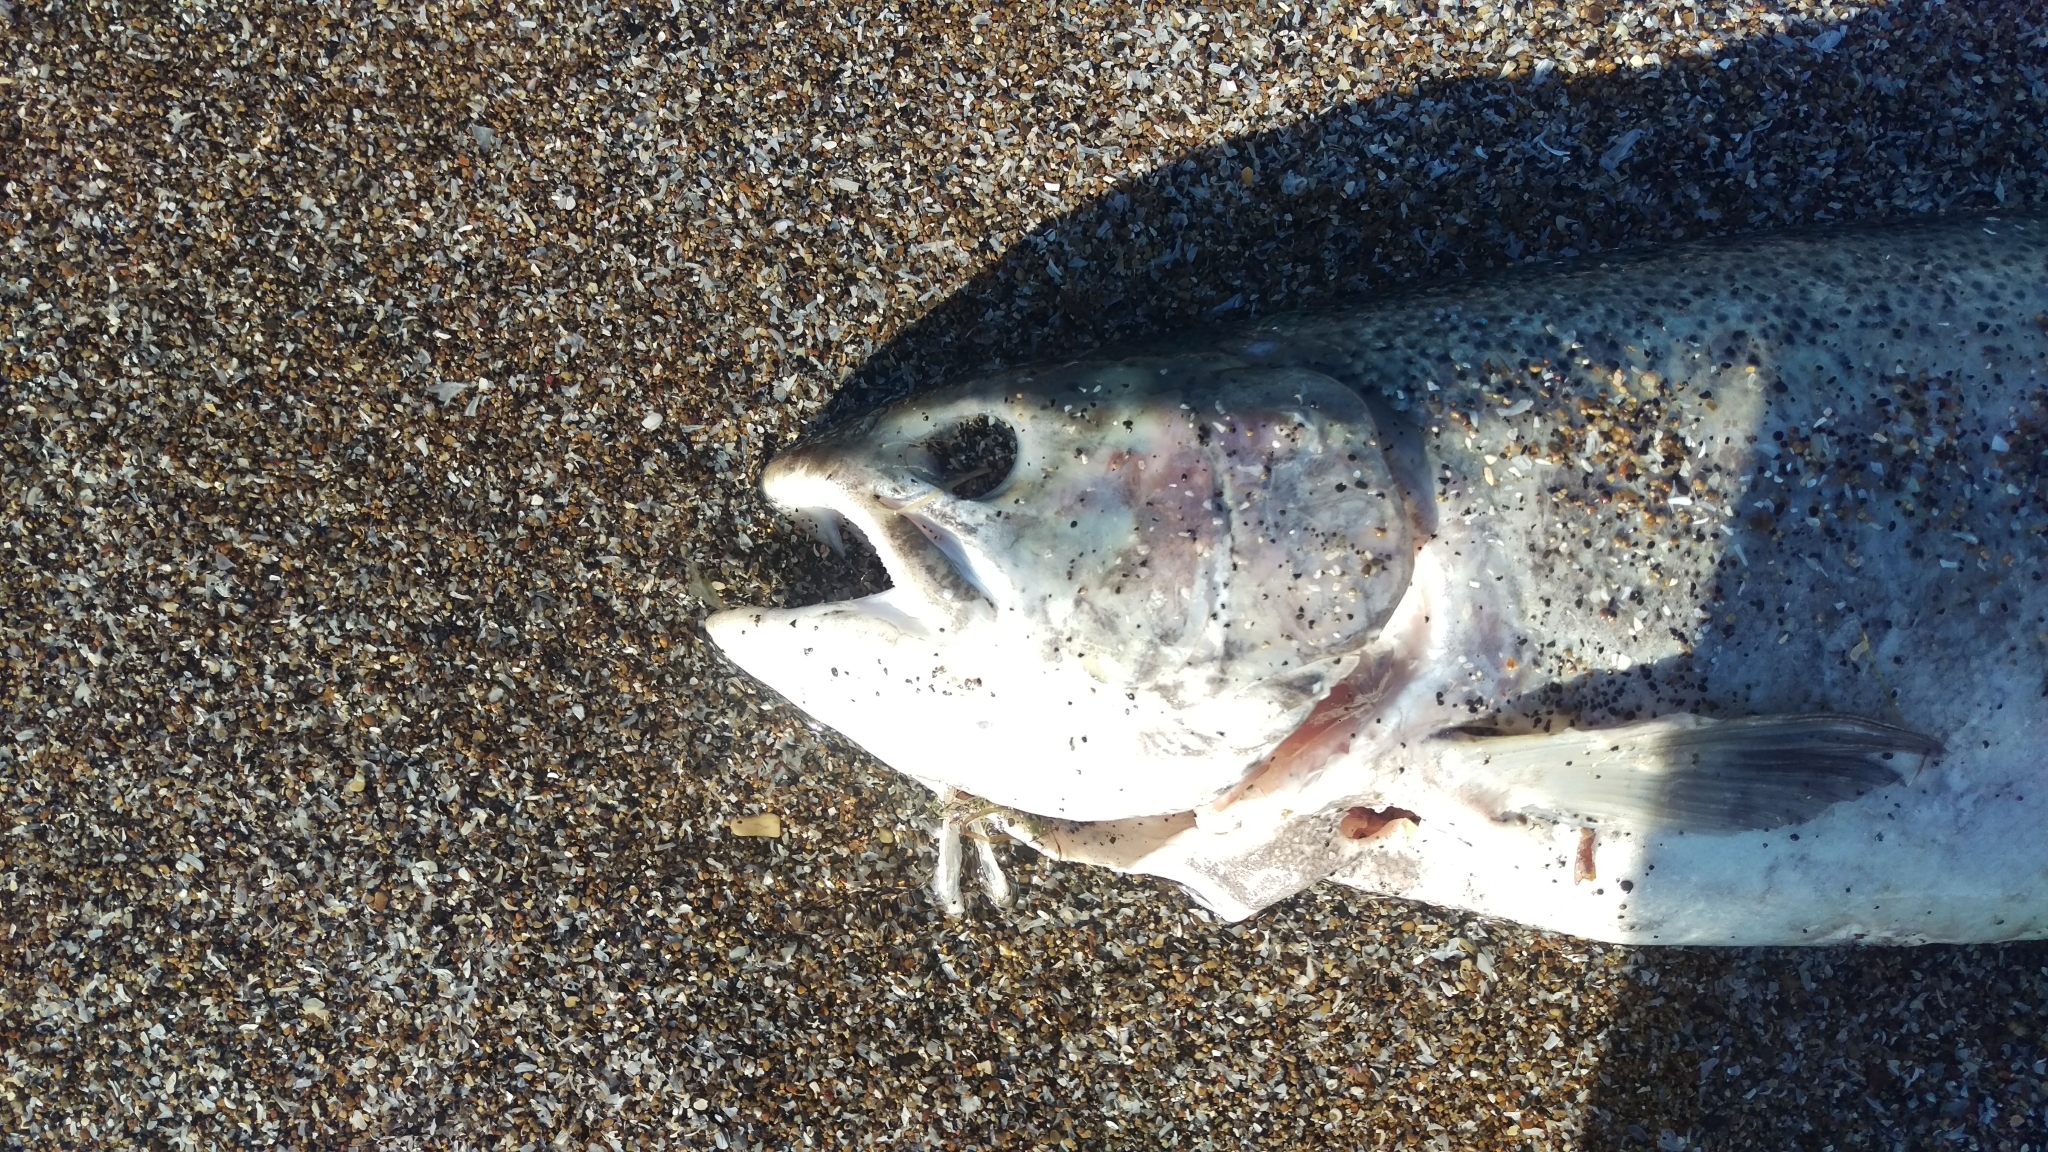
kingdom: Animalia
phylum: Chordata
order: Salmoniformes
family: Salmonidae
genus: Oncorhynchus
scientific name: Oncorhynchus mykiss
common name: Rainbow trout
